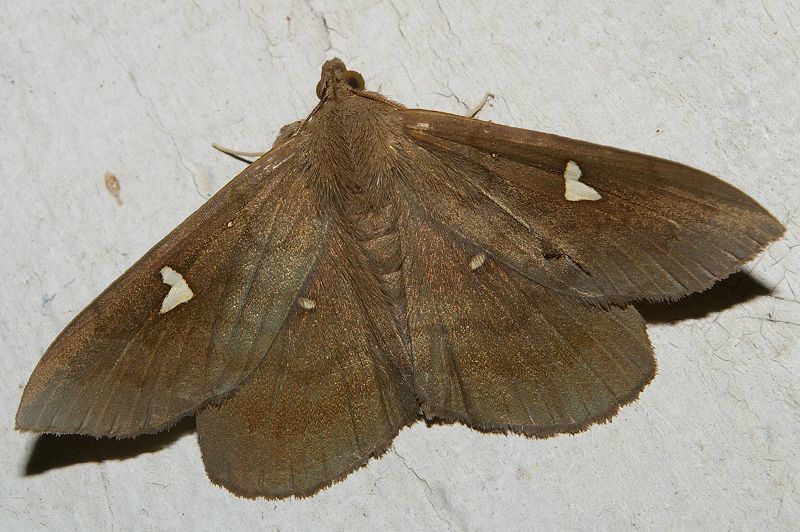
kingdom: Animalia
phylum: Arthropoda
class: Insecta
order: Lepidoptera
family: Erebidae
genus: Edessena
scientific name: Edessena hamada
